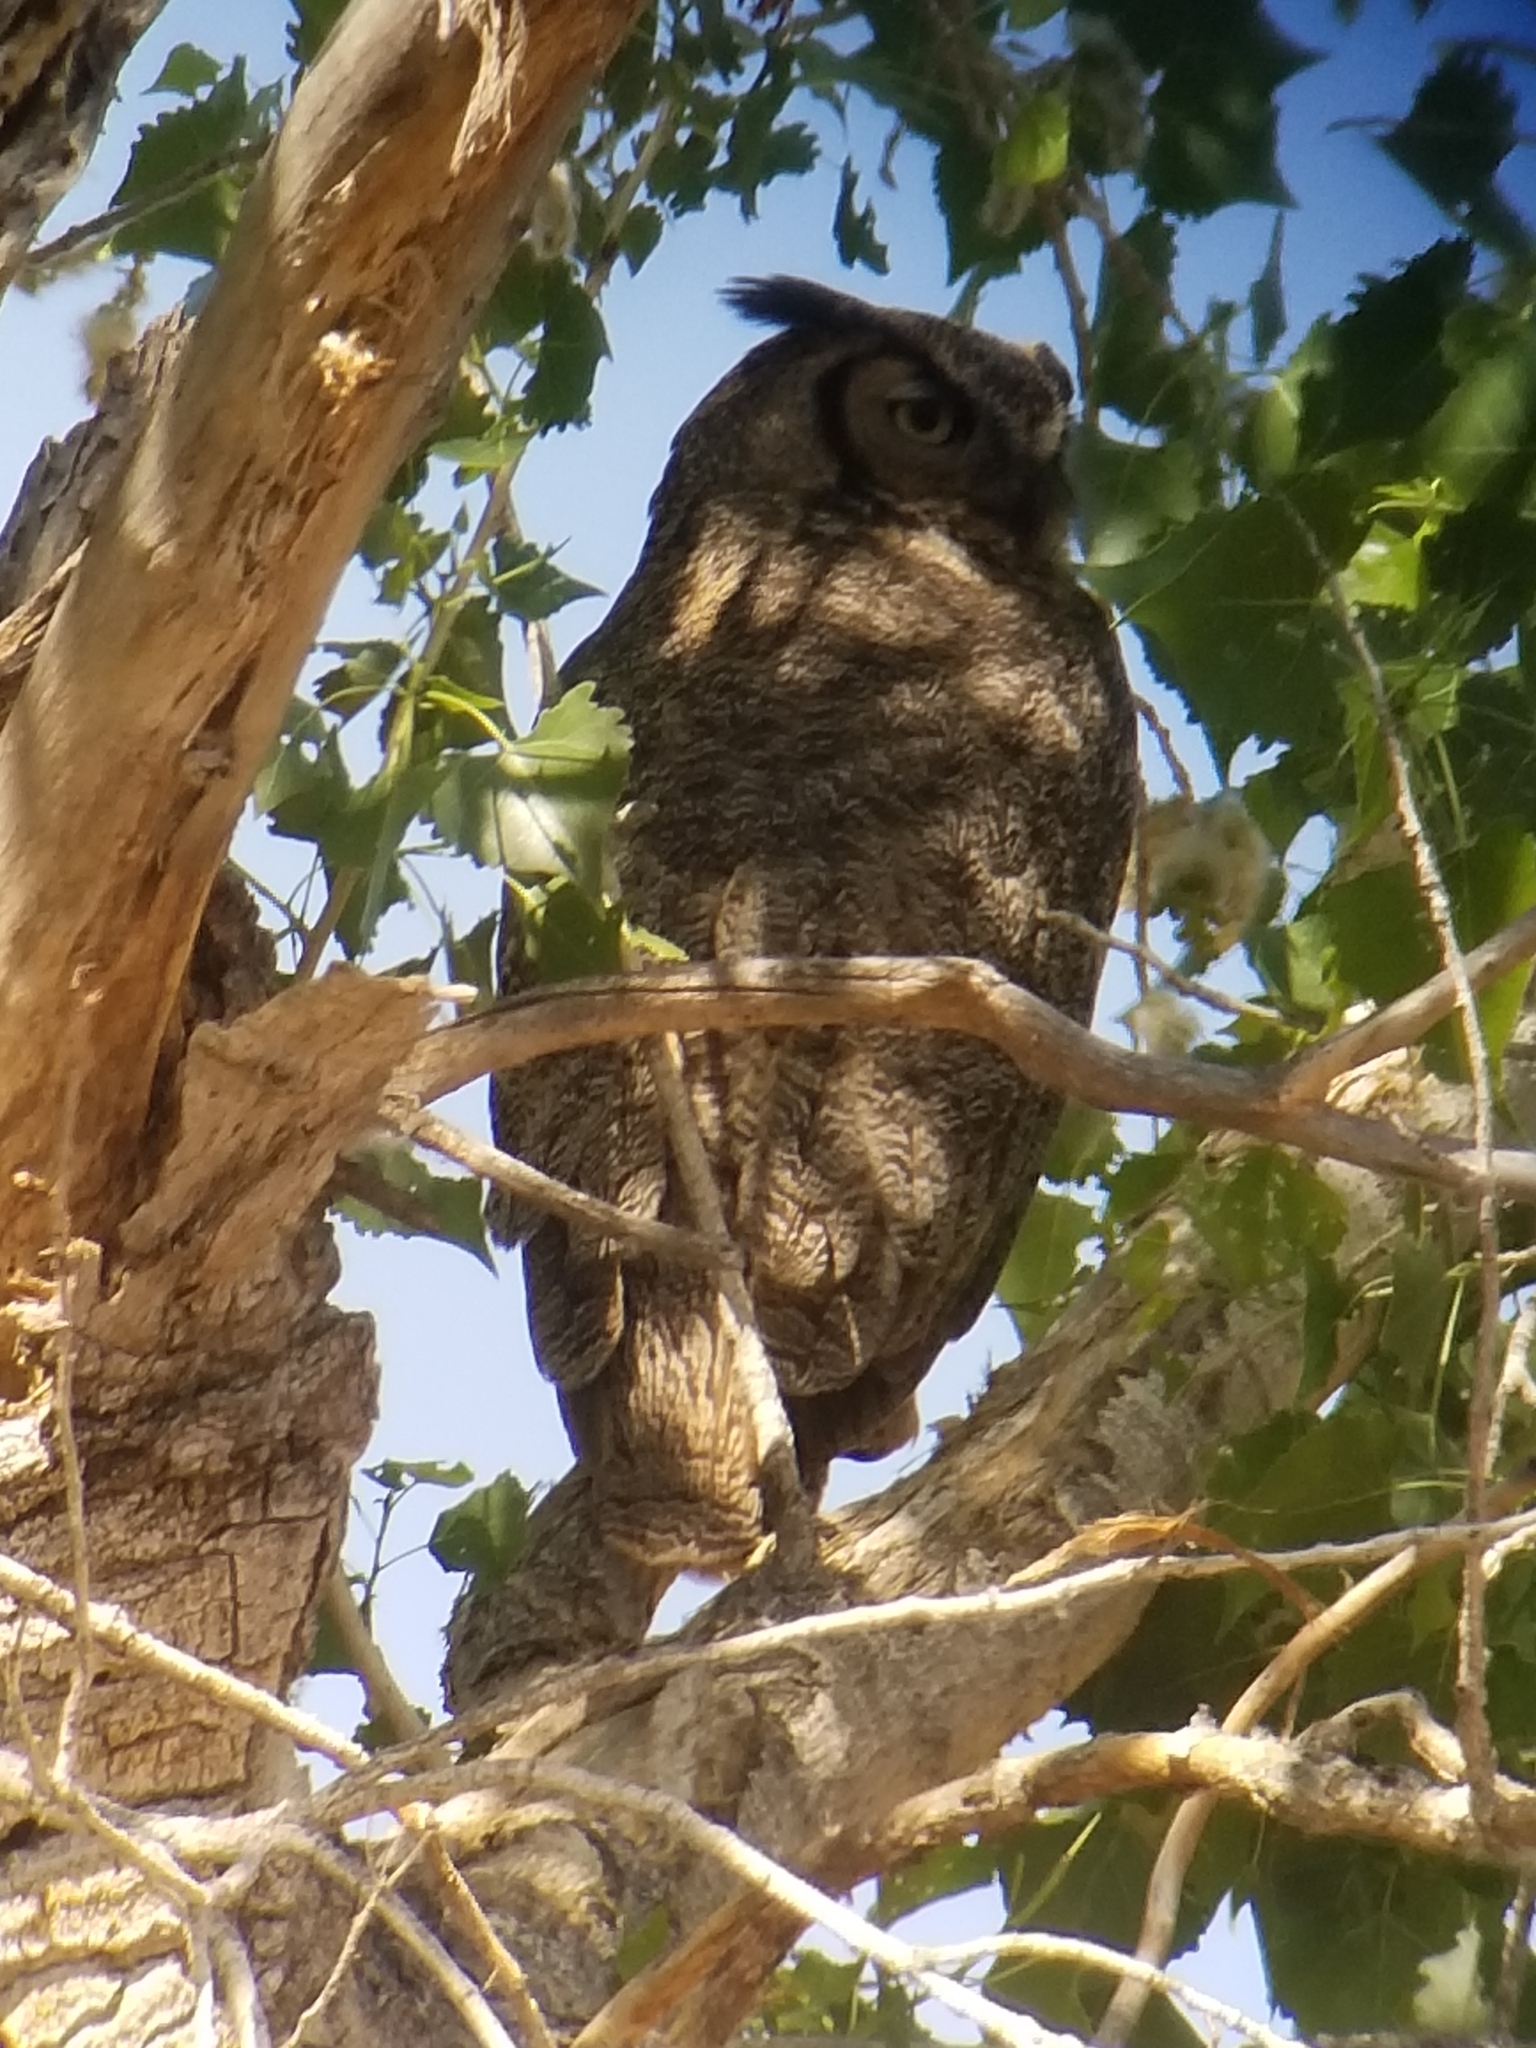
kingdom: Animalia
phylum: Chordata
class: Aves
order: Strigiformes
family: Strigidae
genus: Bubo
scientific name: Bubo virginianus
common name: Great horned owl
